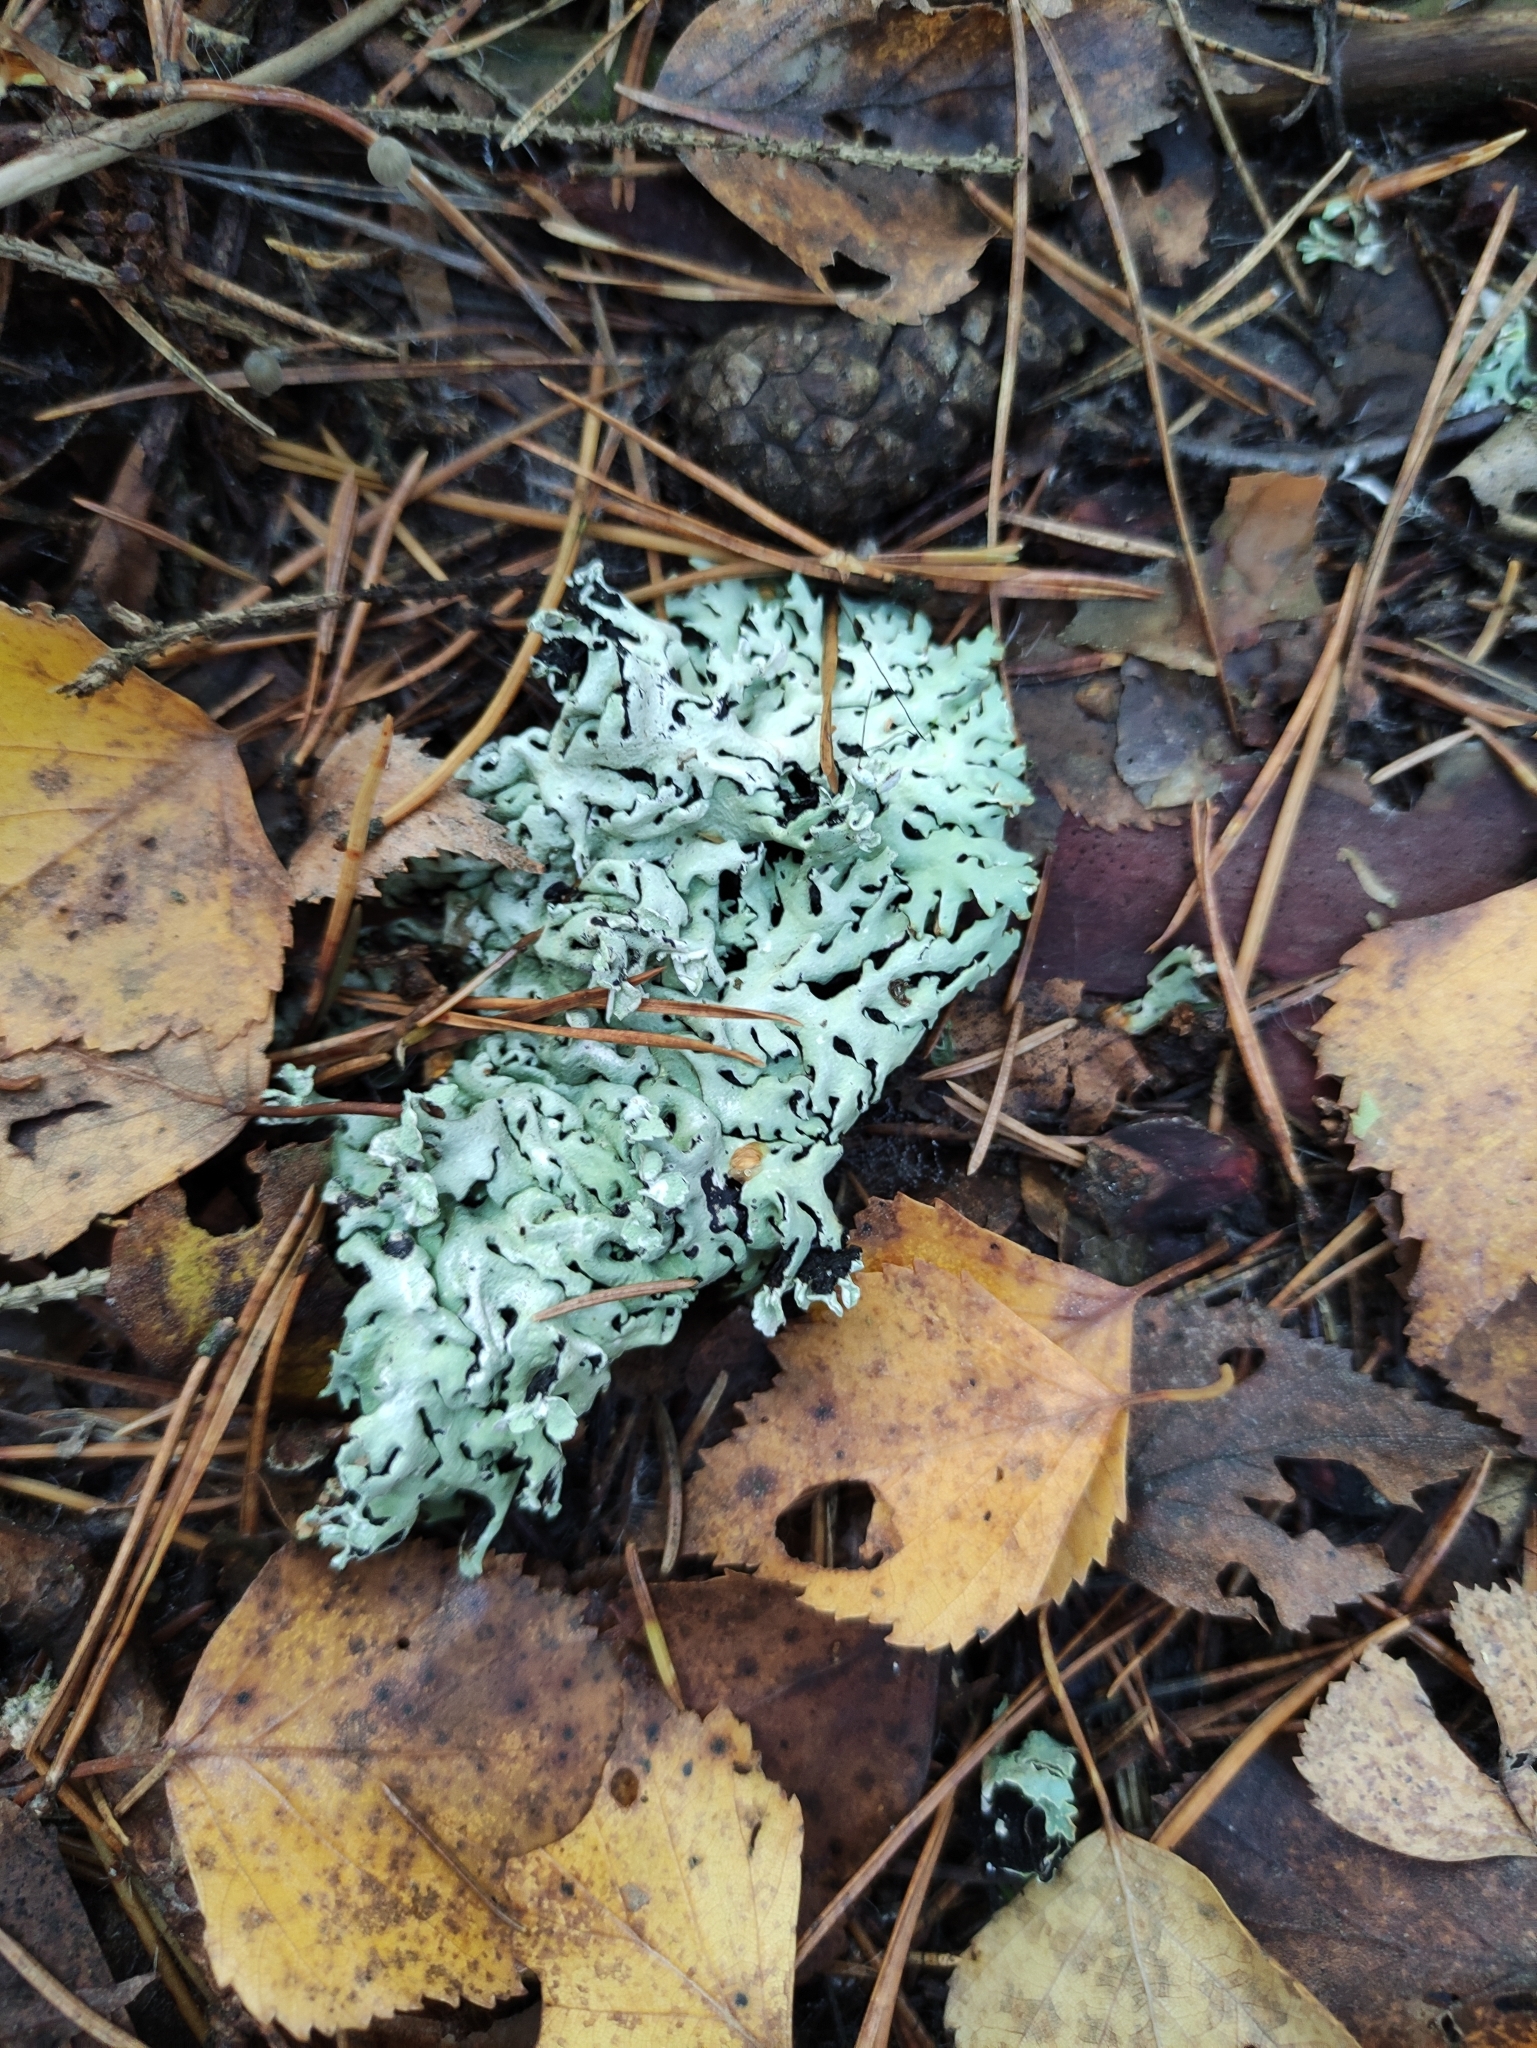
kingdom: Fungi
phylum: Ascomycota
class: Lecanoromycetes
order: Lecanorales
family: Parmeliaceae
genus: Hypogymnia
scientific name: Hypogymnia physodes
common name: Dark crottle
